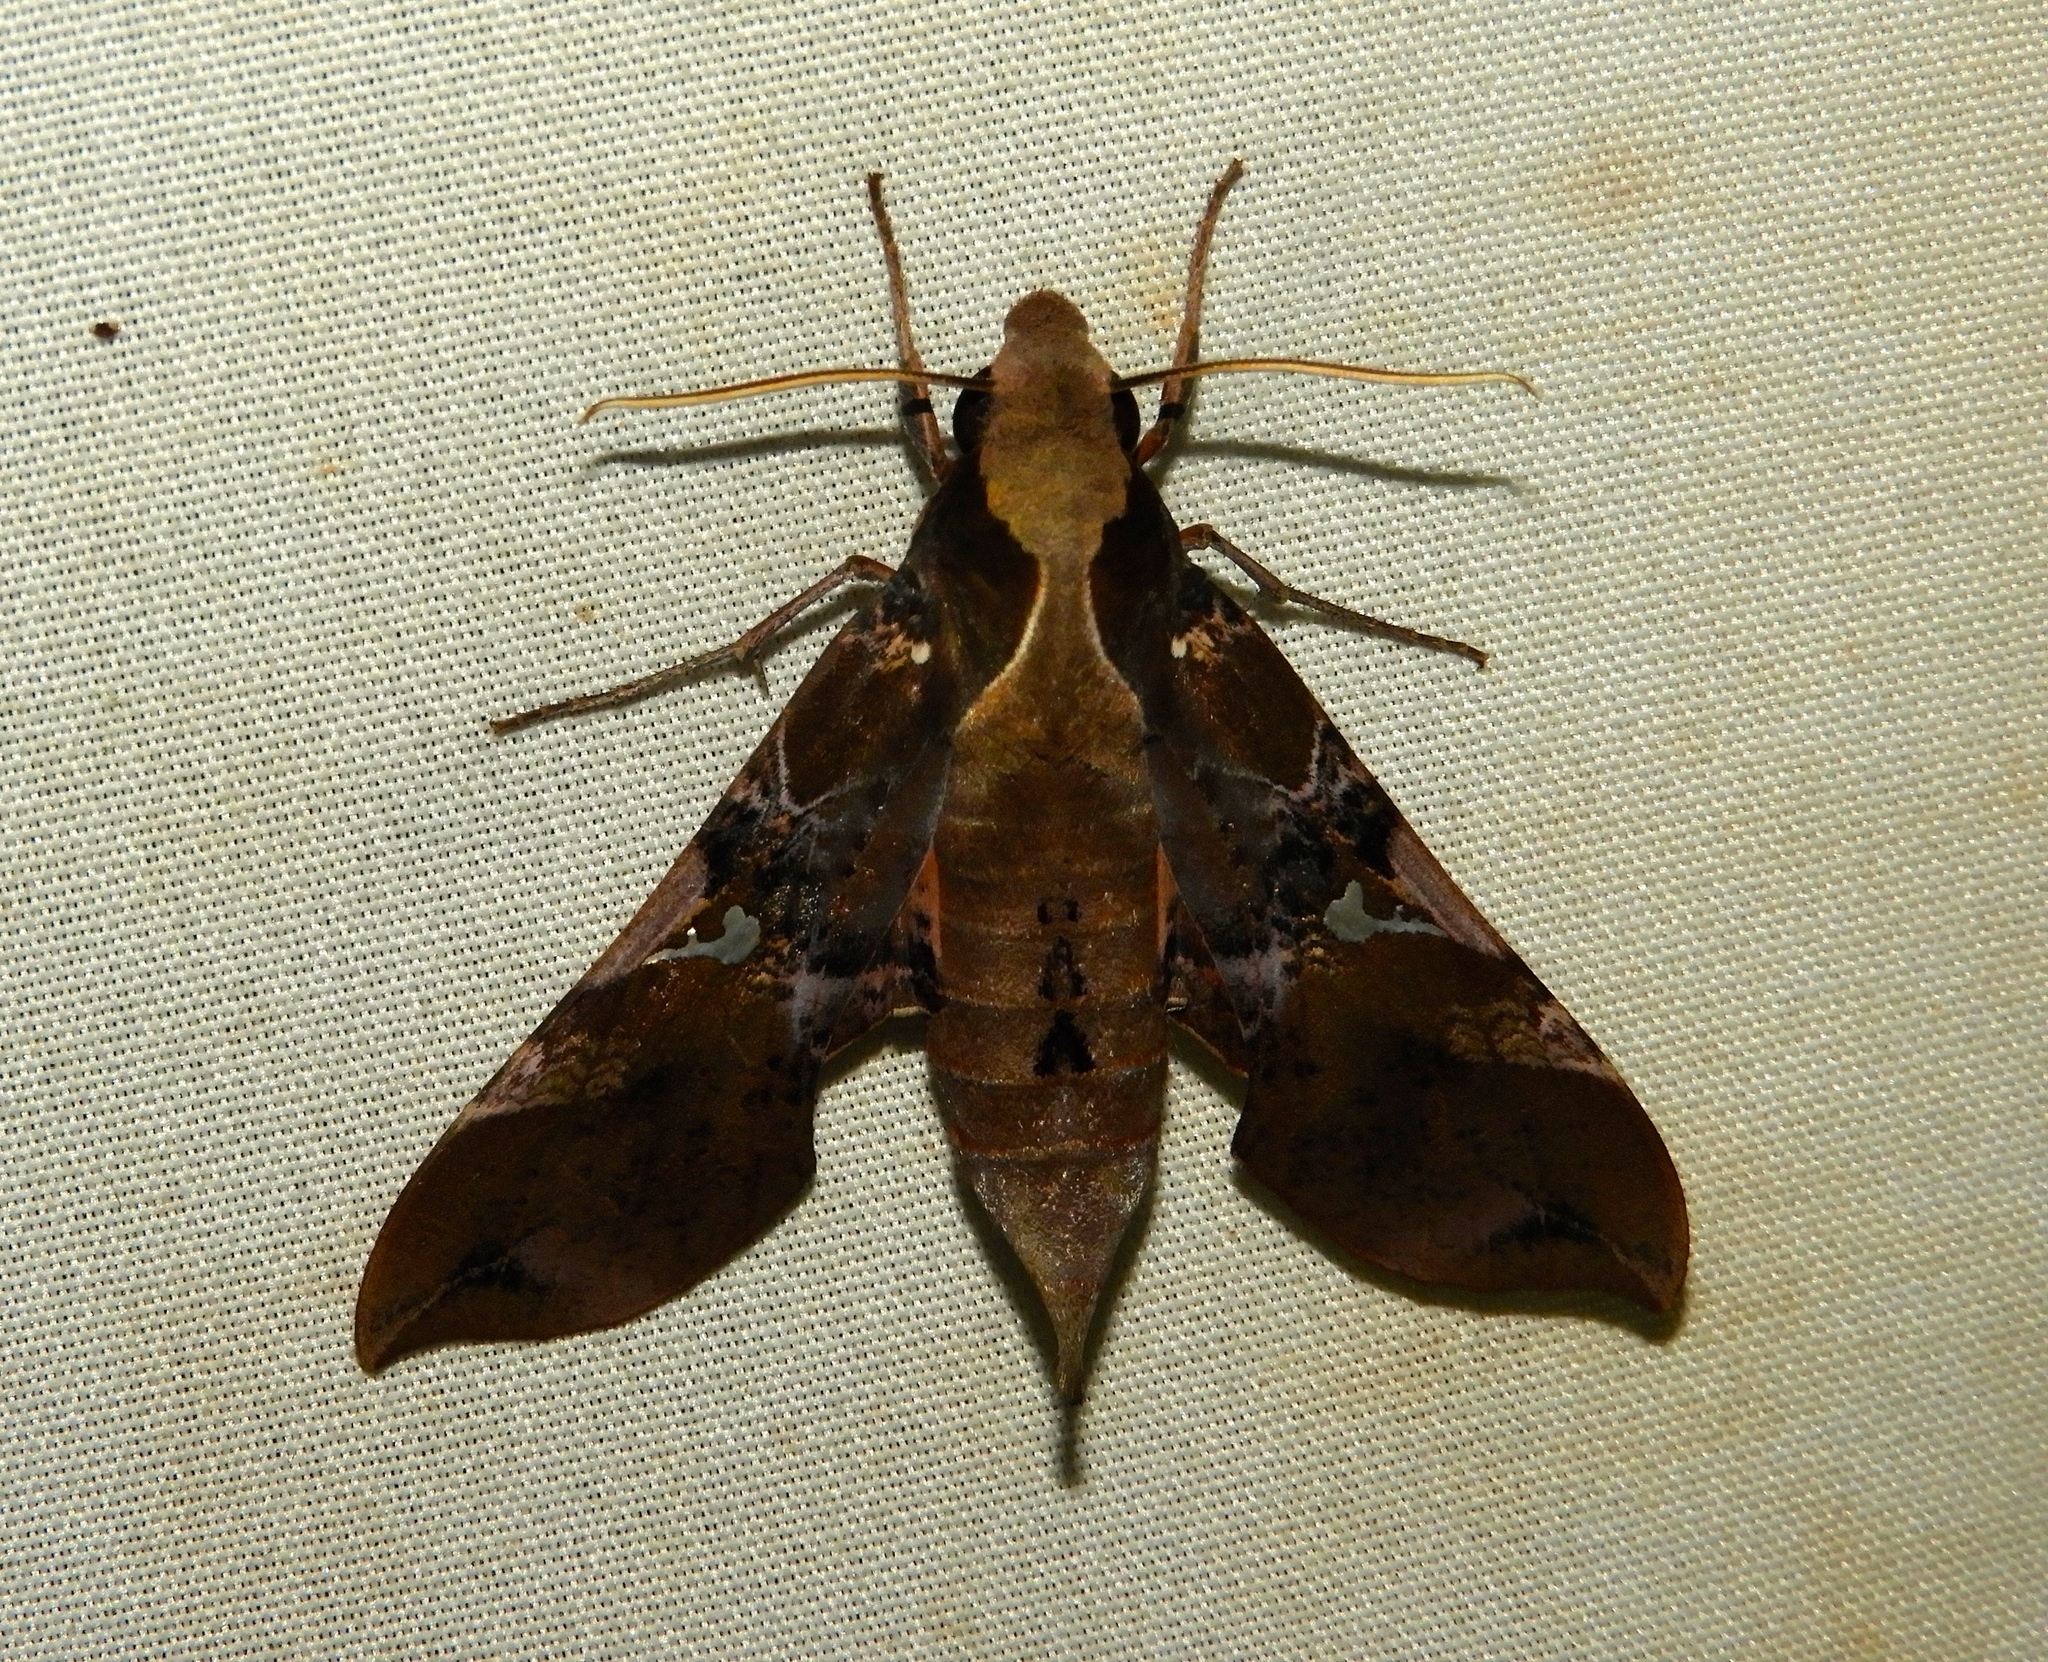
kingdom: Animalia
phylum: Arthropoda
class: Insecta
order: Lepidoptera
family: Sphingidae
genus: Callionima
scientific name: Callionima falcifera
